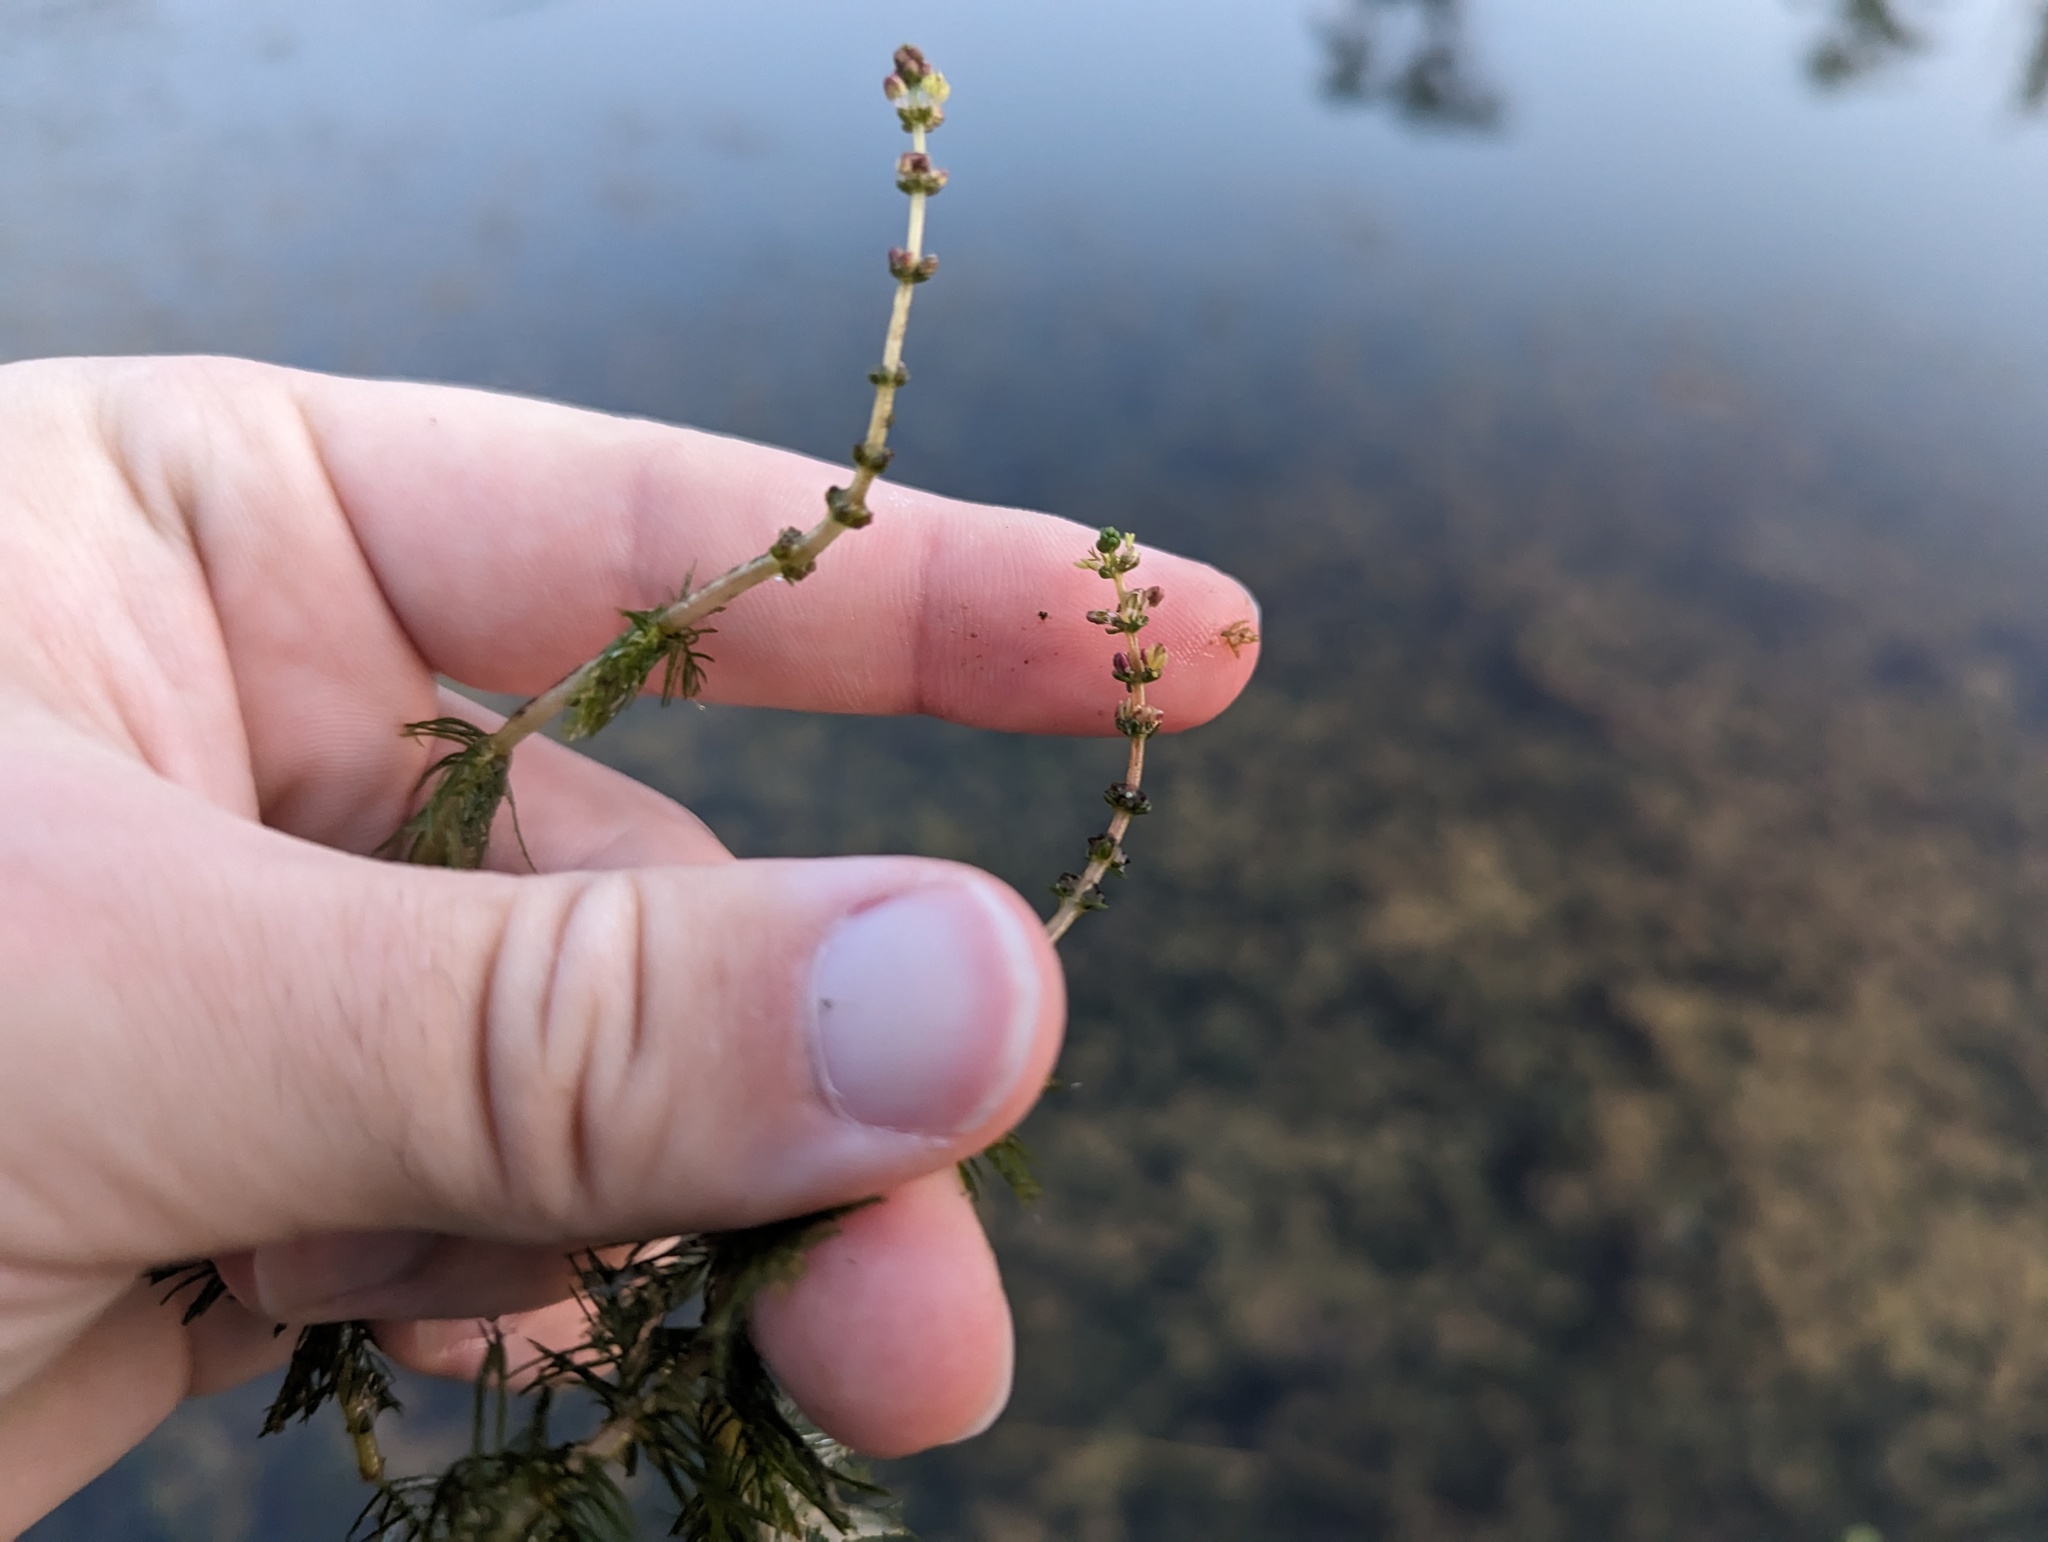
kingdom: Plantae
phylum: Tracheophyta
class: Magnoliopsida
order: Saxifragales
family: Haloragaceae
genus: Myriophyllum
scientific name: Myriophyllum sibiricum
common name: Siberian water-milfoil
